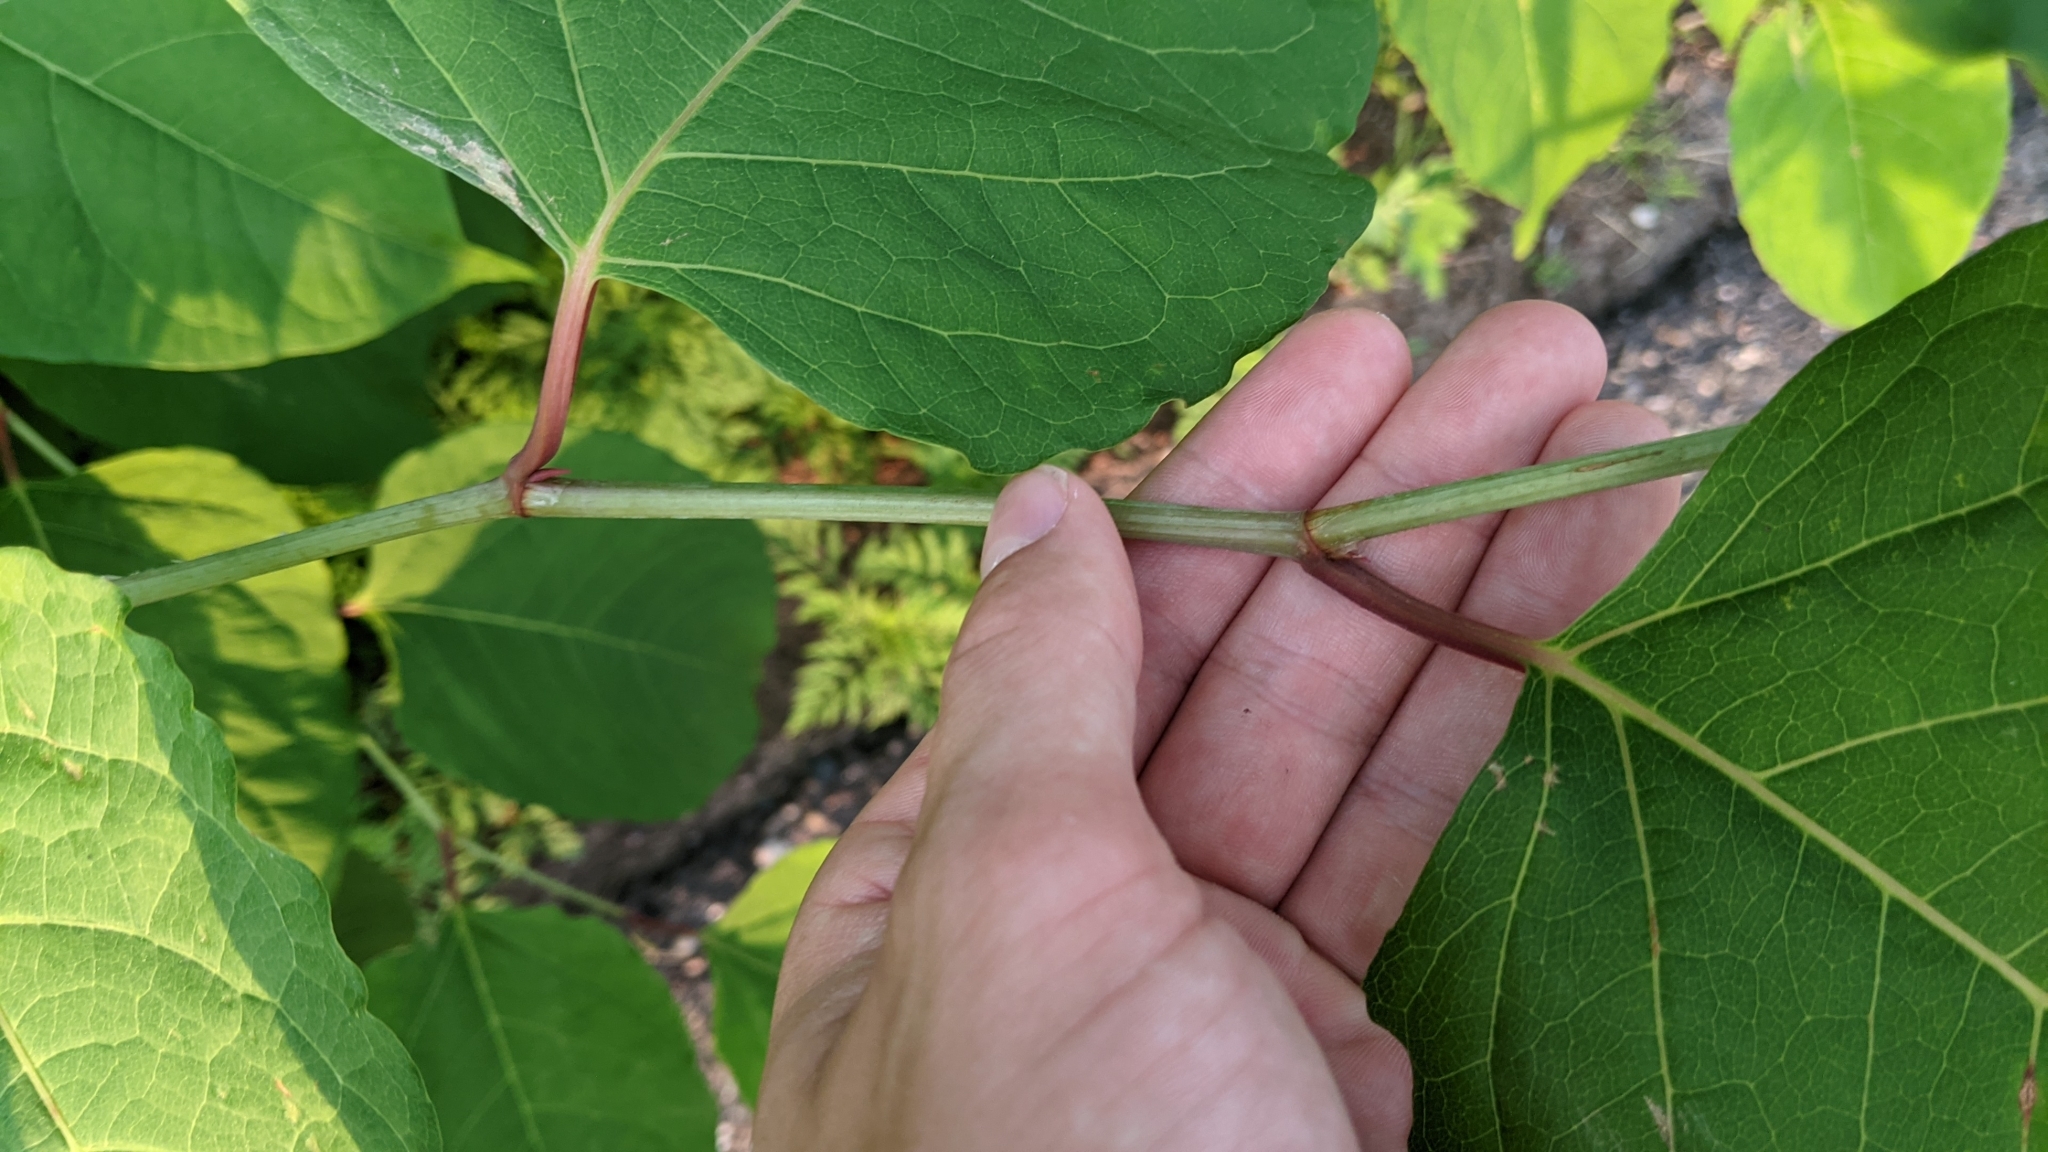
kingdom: Plantae
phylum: Tracheophyta
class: Magnoliopsida
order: Caryophyllales
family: Polygonaceae
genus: Reynoutria
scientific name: Reynoutria japonica
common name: Japanese knotweed
